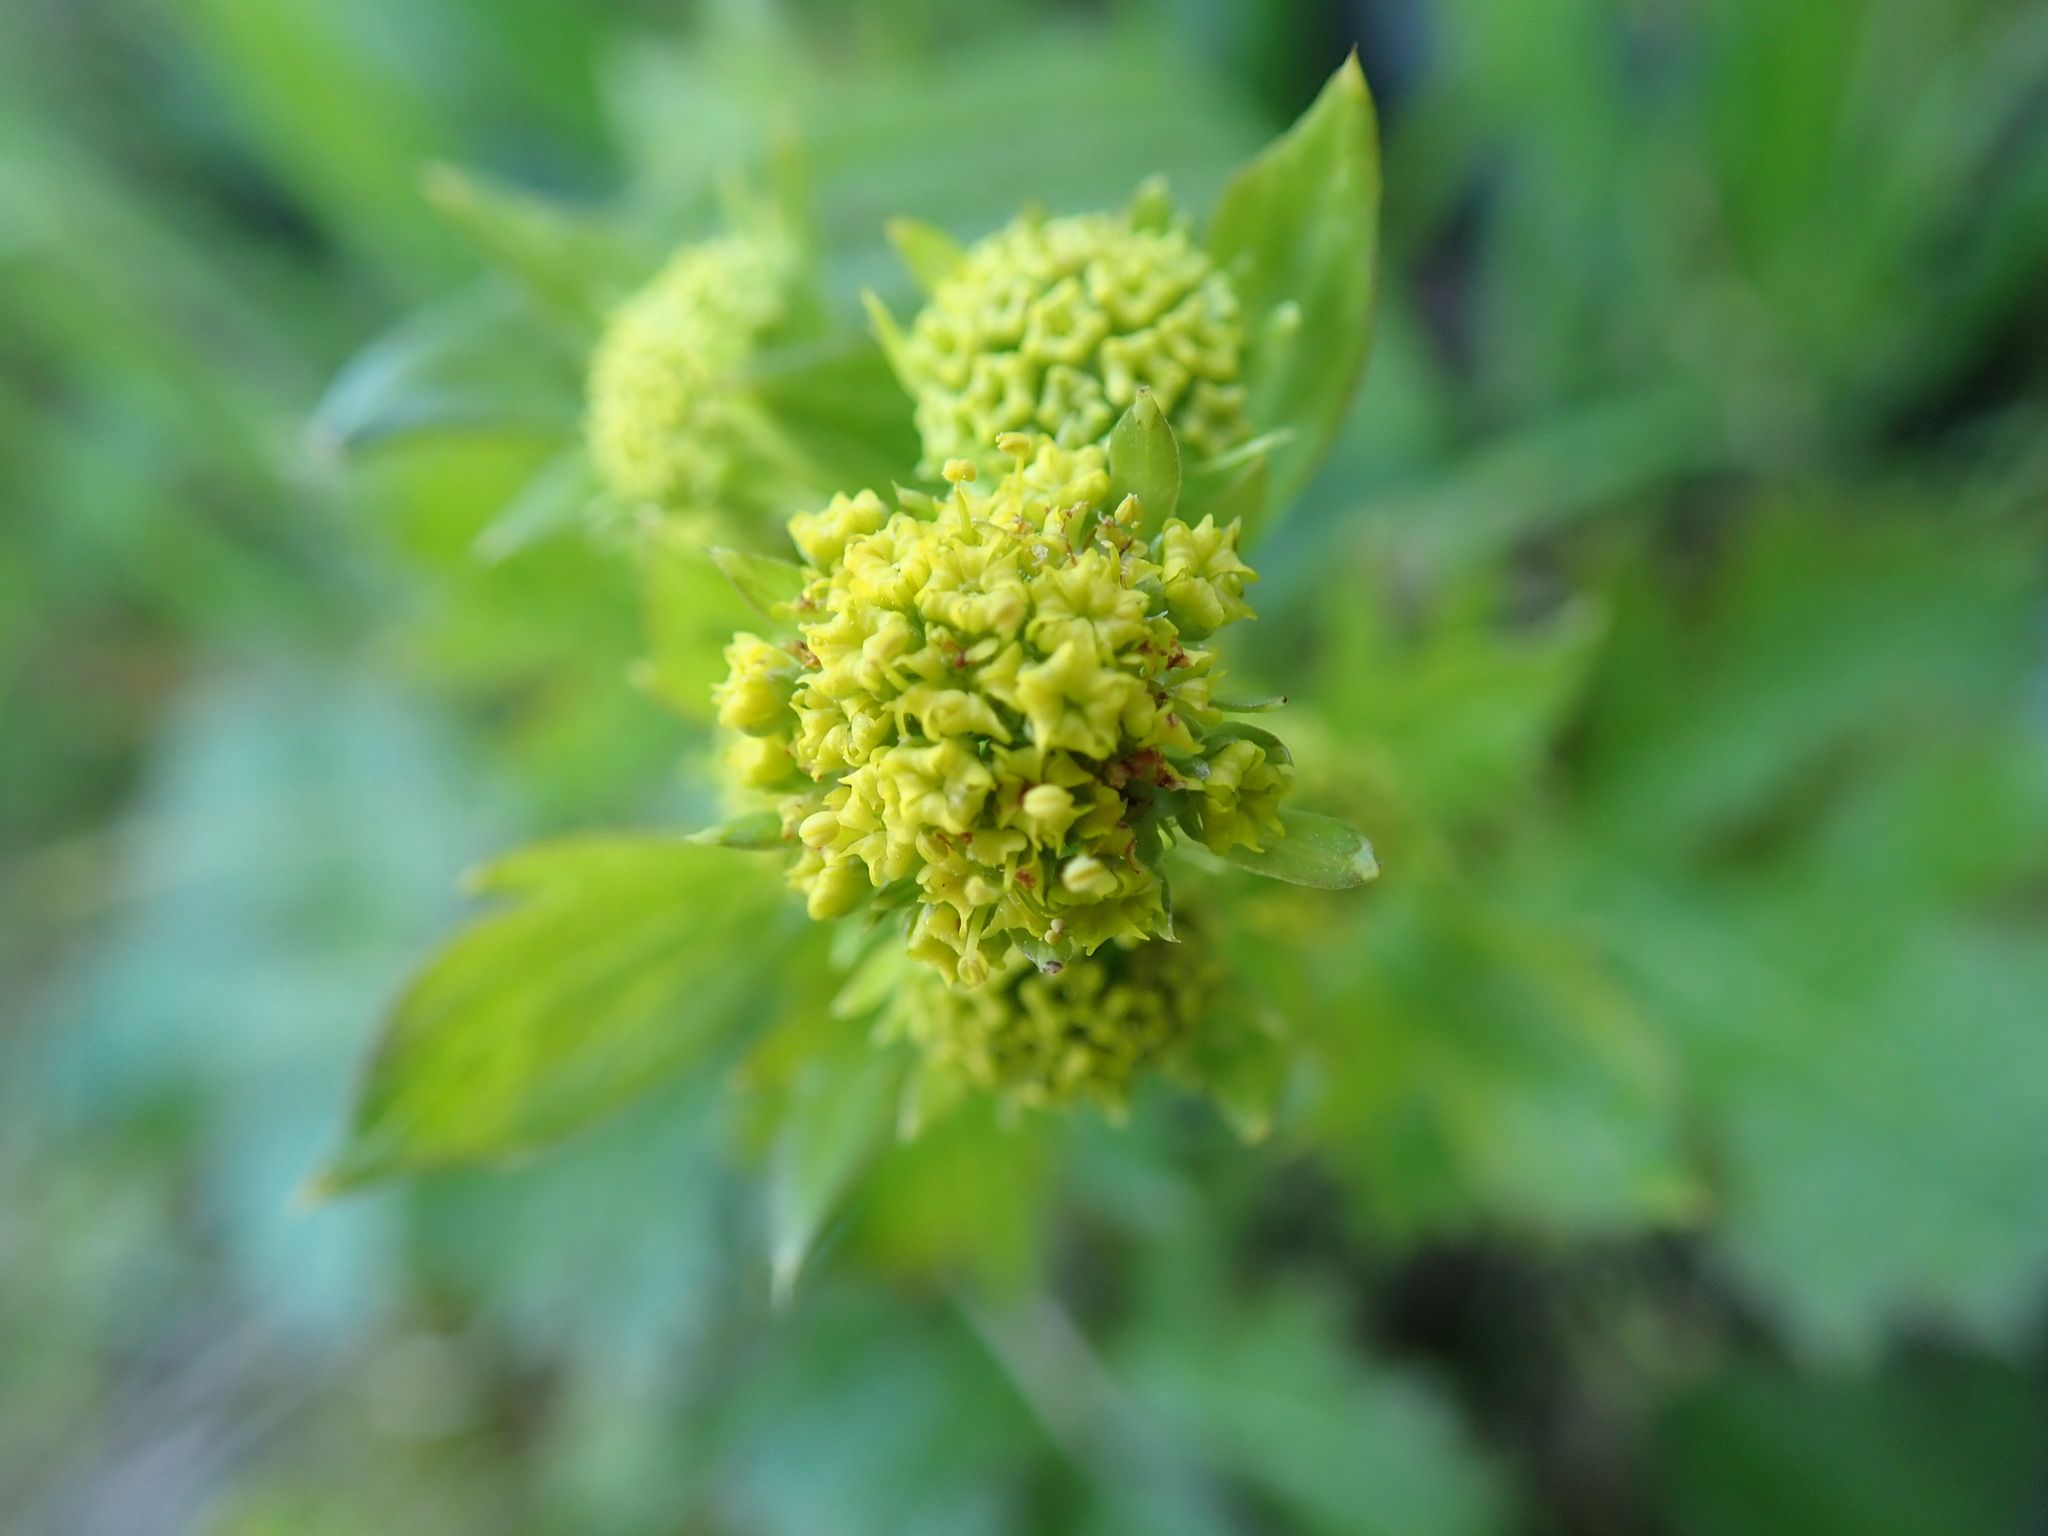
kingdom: Plantae
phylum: Tracheophyta
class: Magnoliopsida
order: Apiales
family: Apiaceae
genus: Sanicula
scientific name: Sanicula crassicaulis
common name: Western snakeroot
